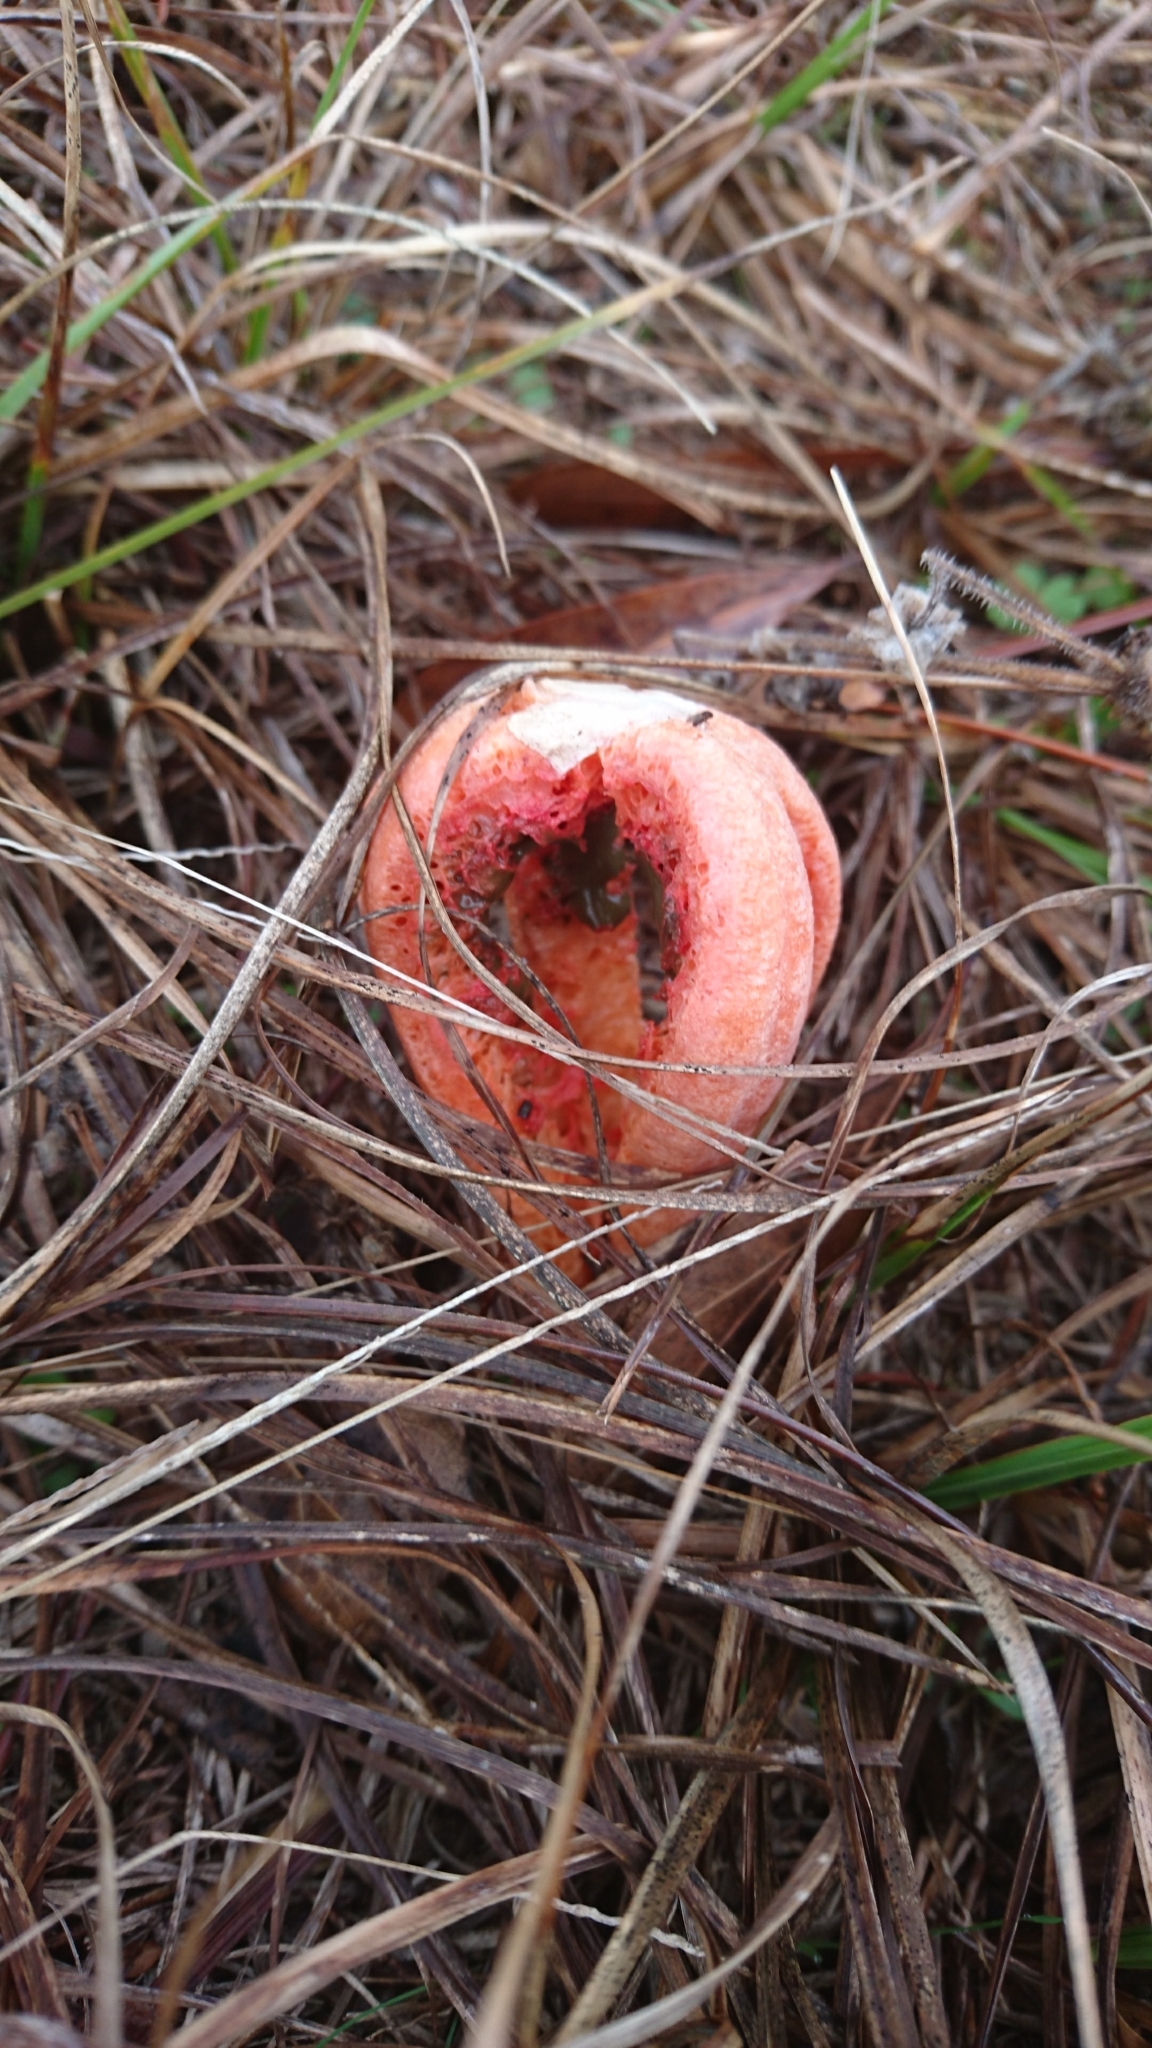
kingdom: Fungi
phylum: Basidiomycota
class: Agaricomycetes
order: Phallales
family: Phallaceae
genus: Clathrus
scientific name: Clathrus columnatus
